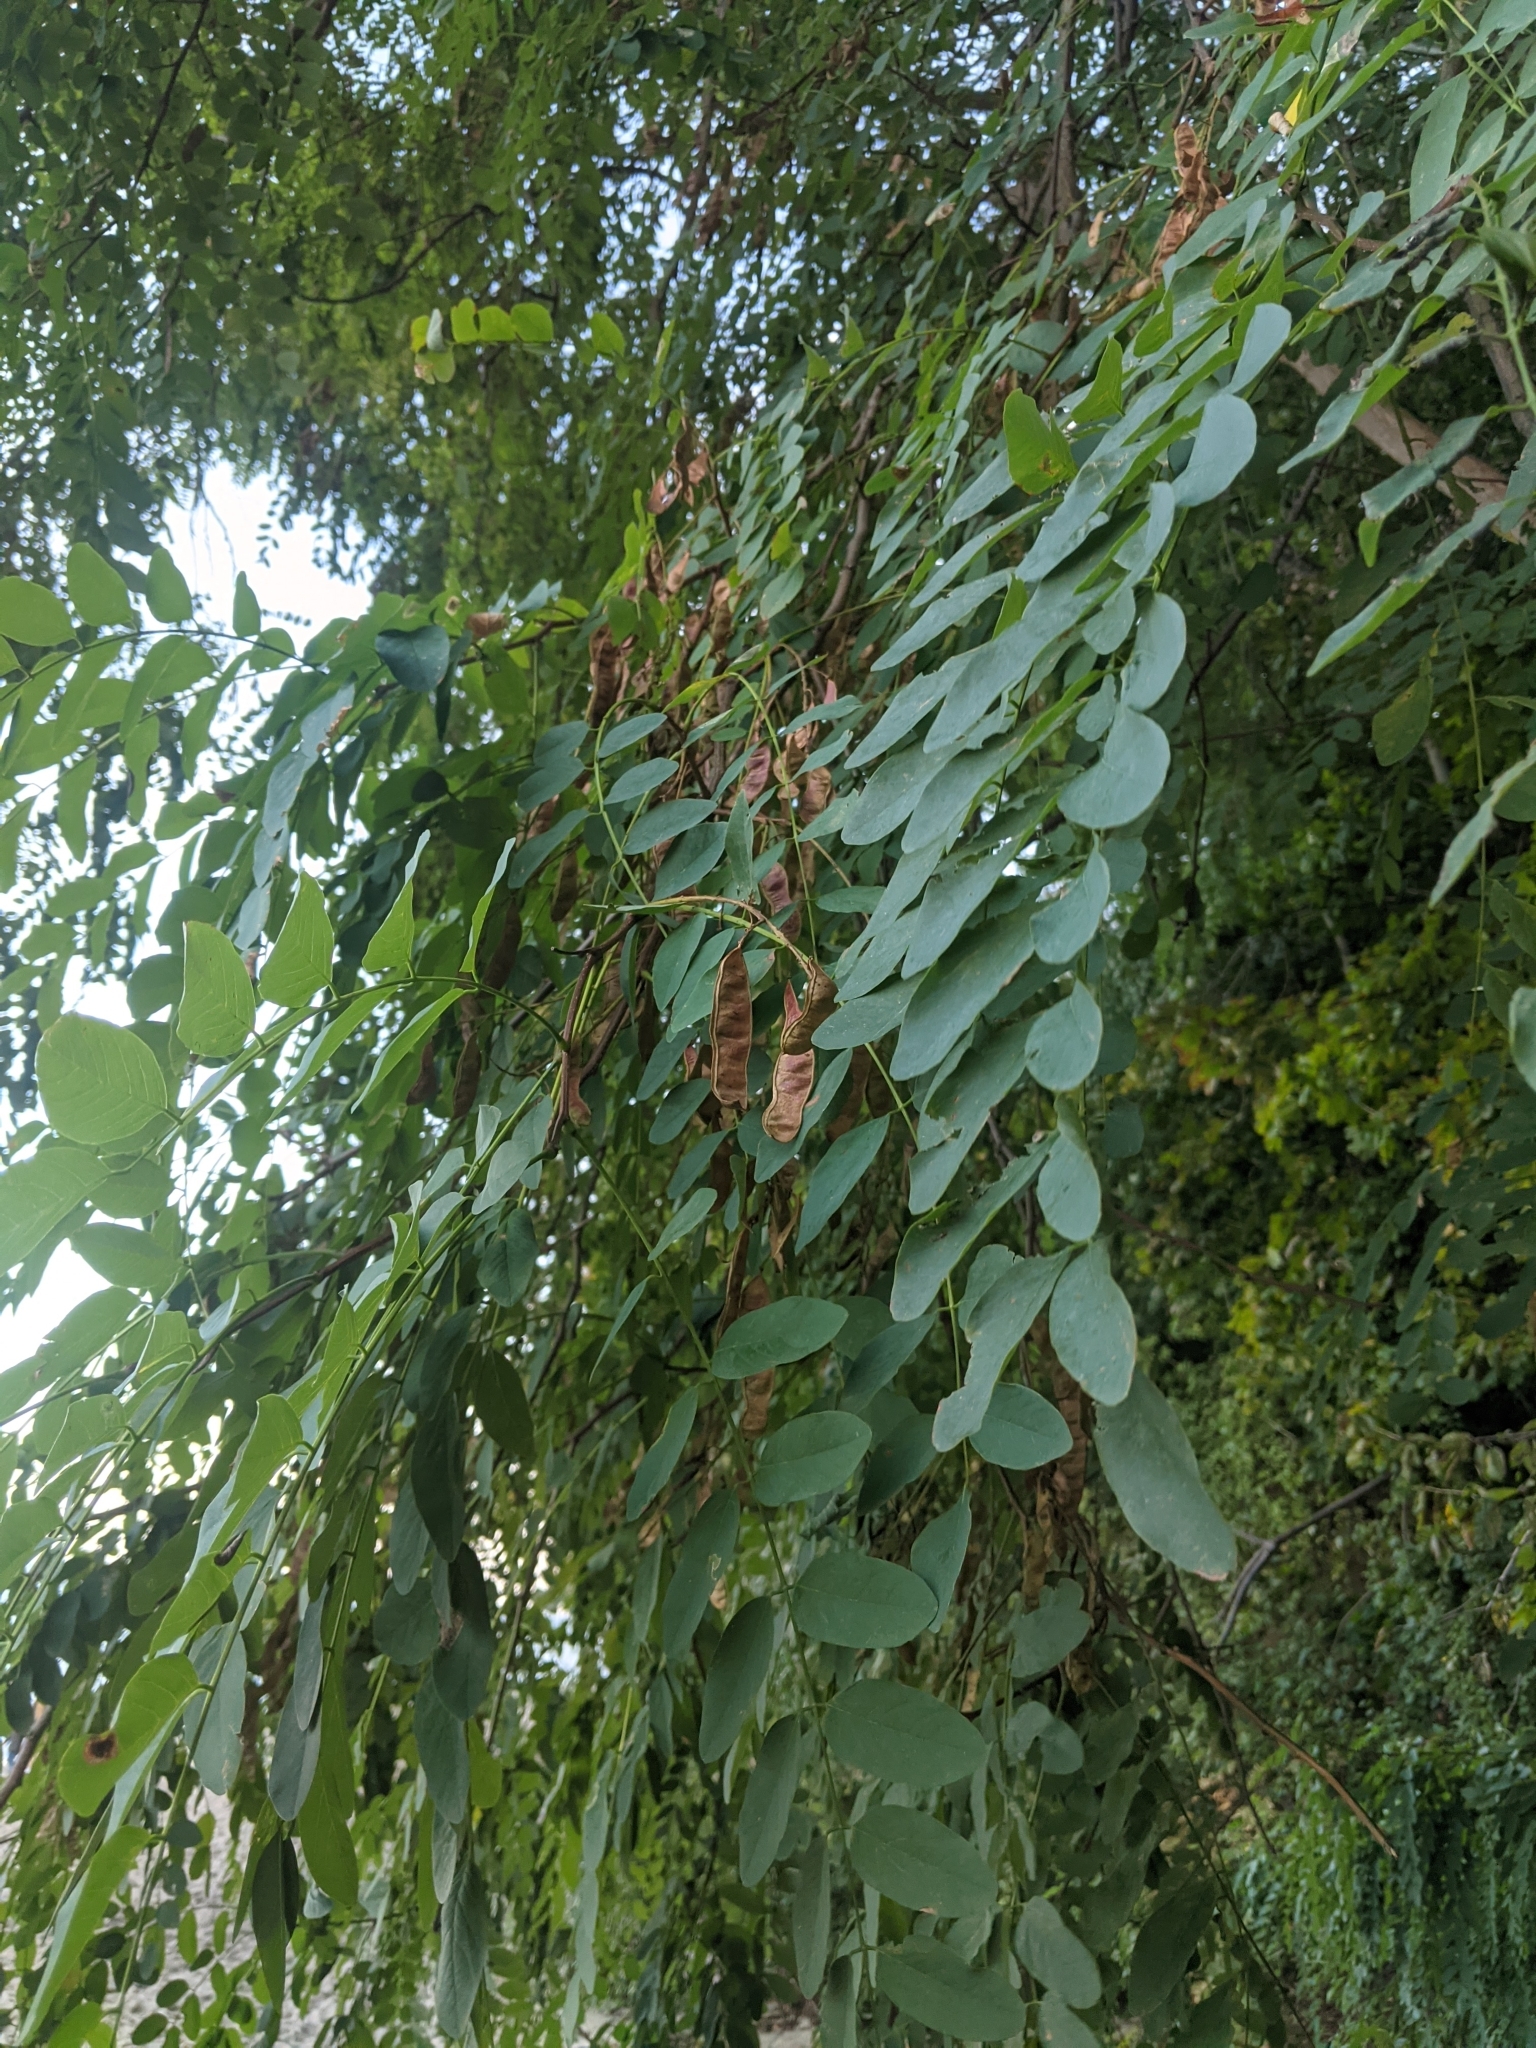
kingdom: Plantae
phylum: Tracheophyta
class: Magnoliopsida
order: Fabales
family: Fabaceae
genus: Robinia
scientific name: Robinia pseudoacacia
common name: Black locust
